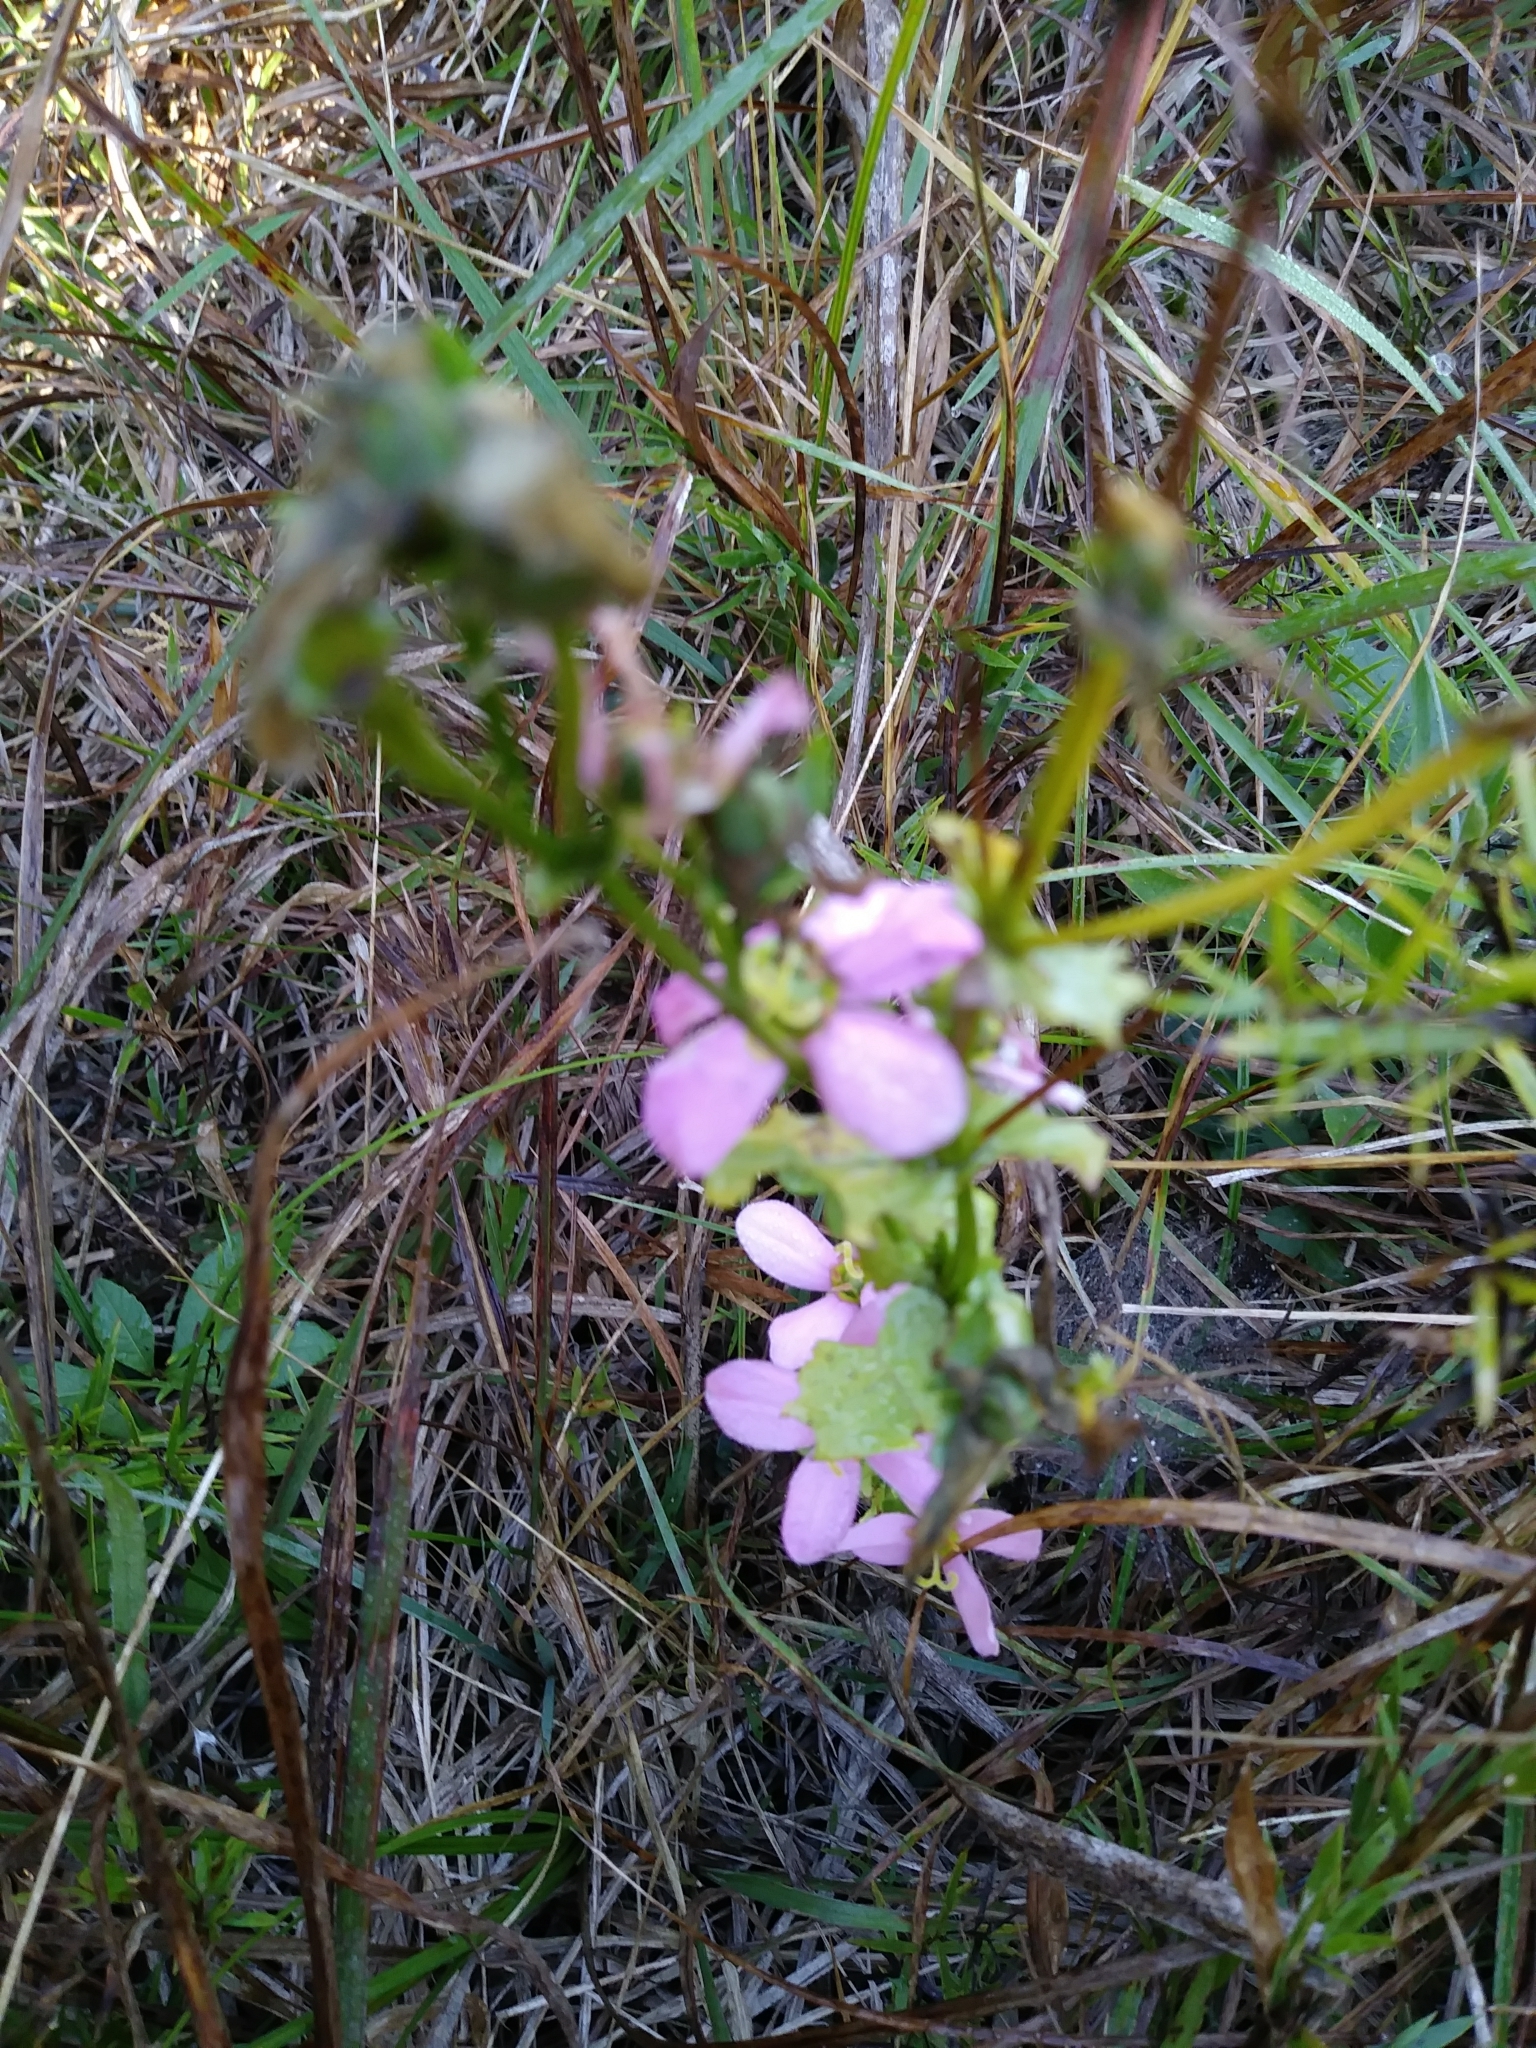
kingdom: Plantae
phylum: Tracheophyta
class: Magnoliopsida
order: Gentianales
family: Gentianaceae
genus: Sabatia
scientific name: Sabatia angularis
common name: Rose-pink
